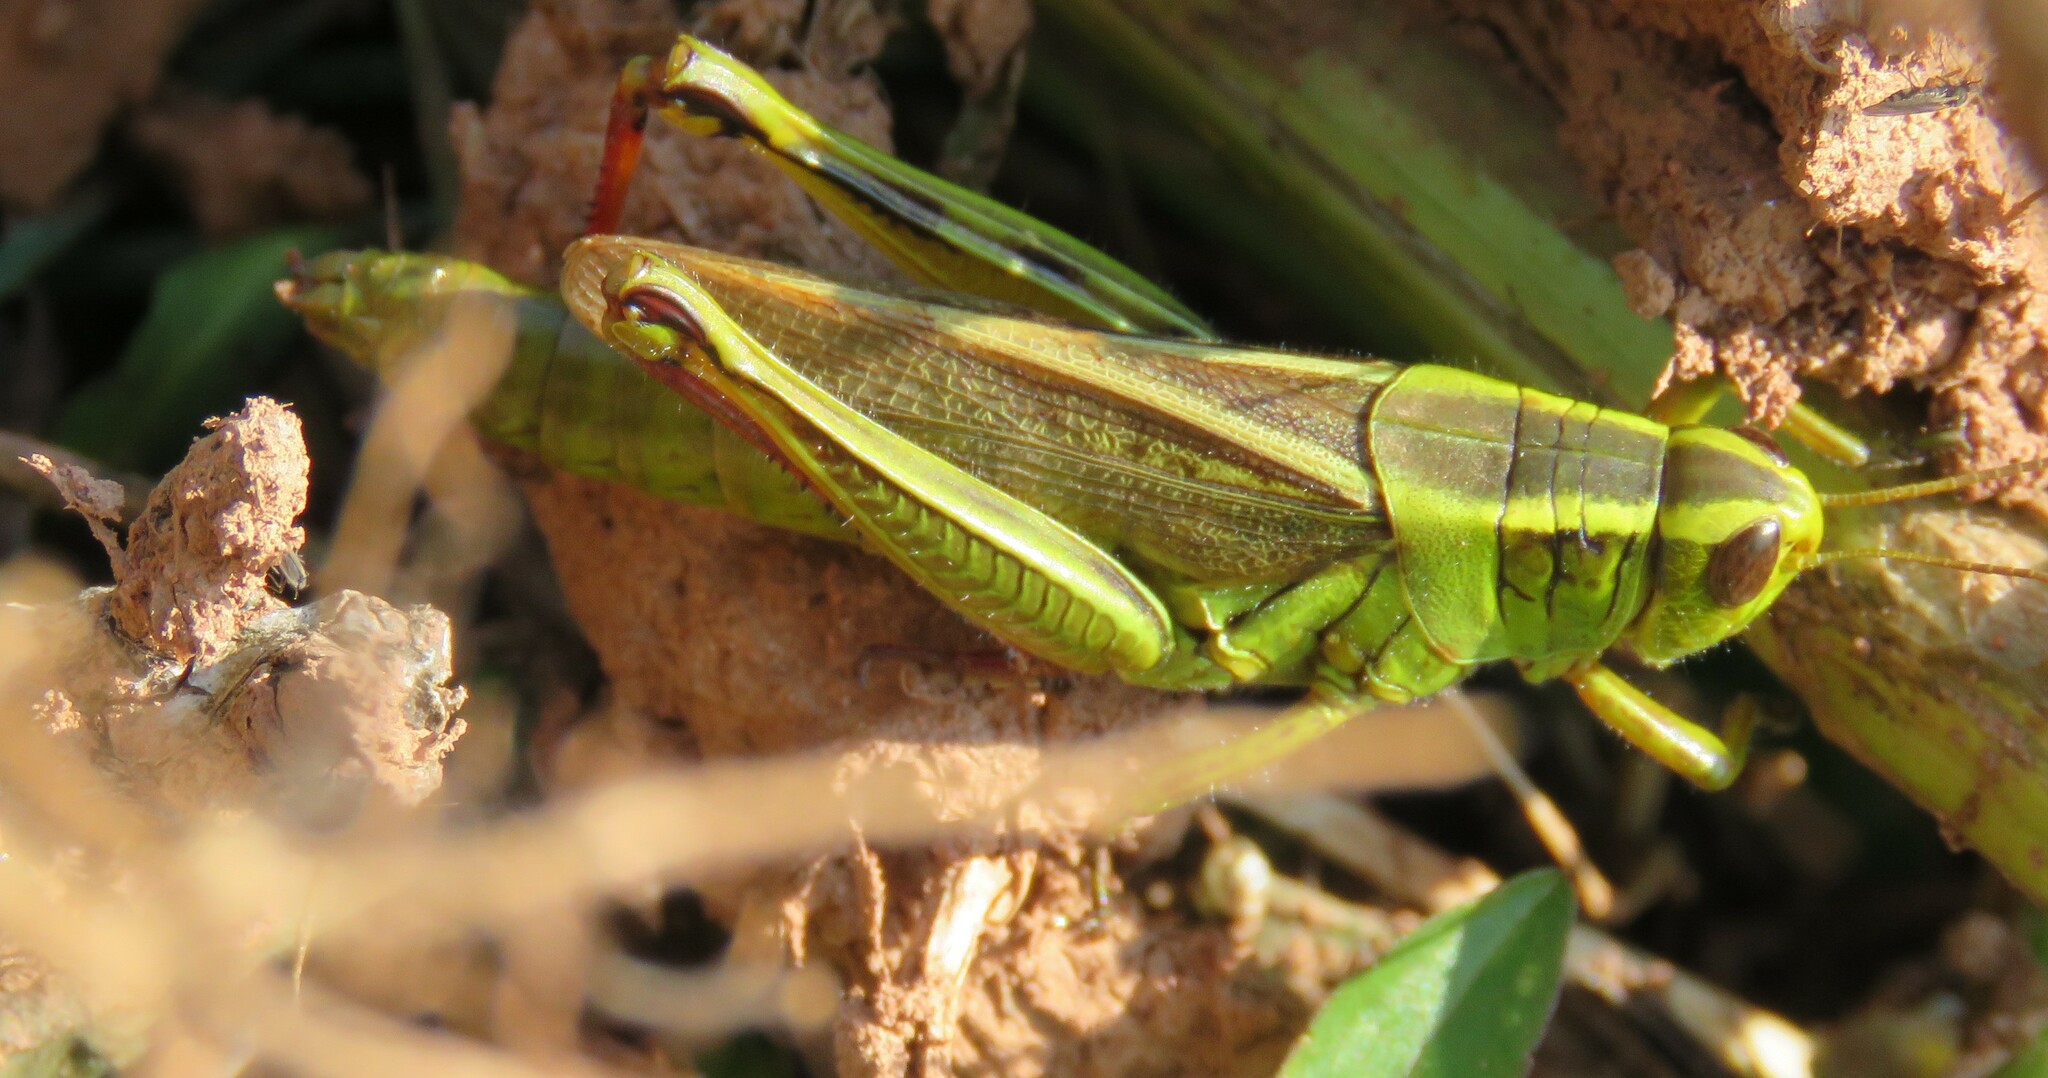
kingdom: Animalia
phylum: Arthropoda
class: Insecta
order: Orthoptera
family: Acrididae
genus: Melanoplus
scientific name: Melanoplus bivittatus
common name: Two-striped grasshopper
